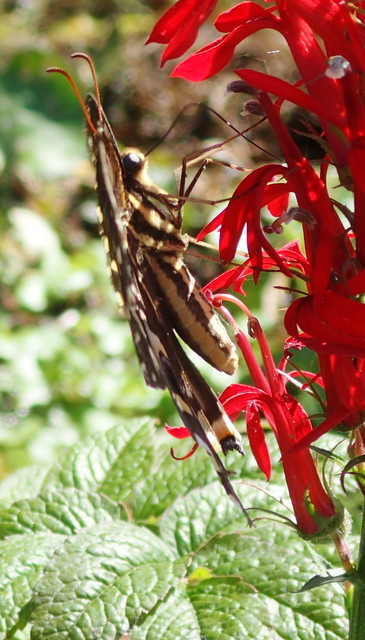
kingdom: Animalia
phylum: Arthropoda
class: Insecta
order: Lepidoptera
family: Papilionidae
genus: Papilio
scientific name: Papilio palamedes
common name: Palamedes swallowtail
